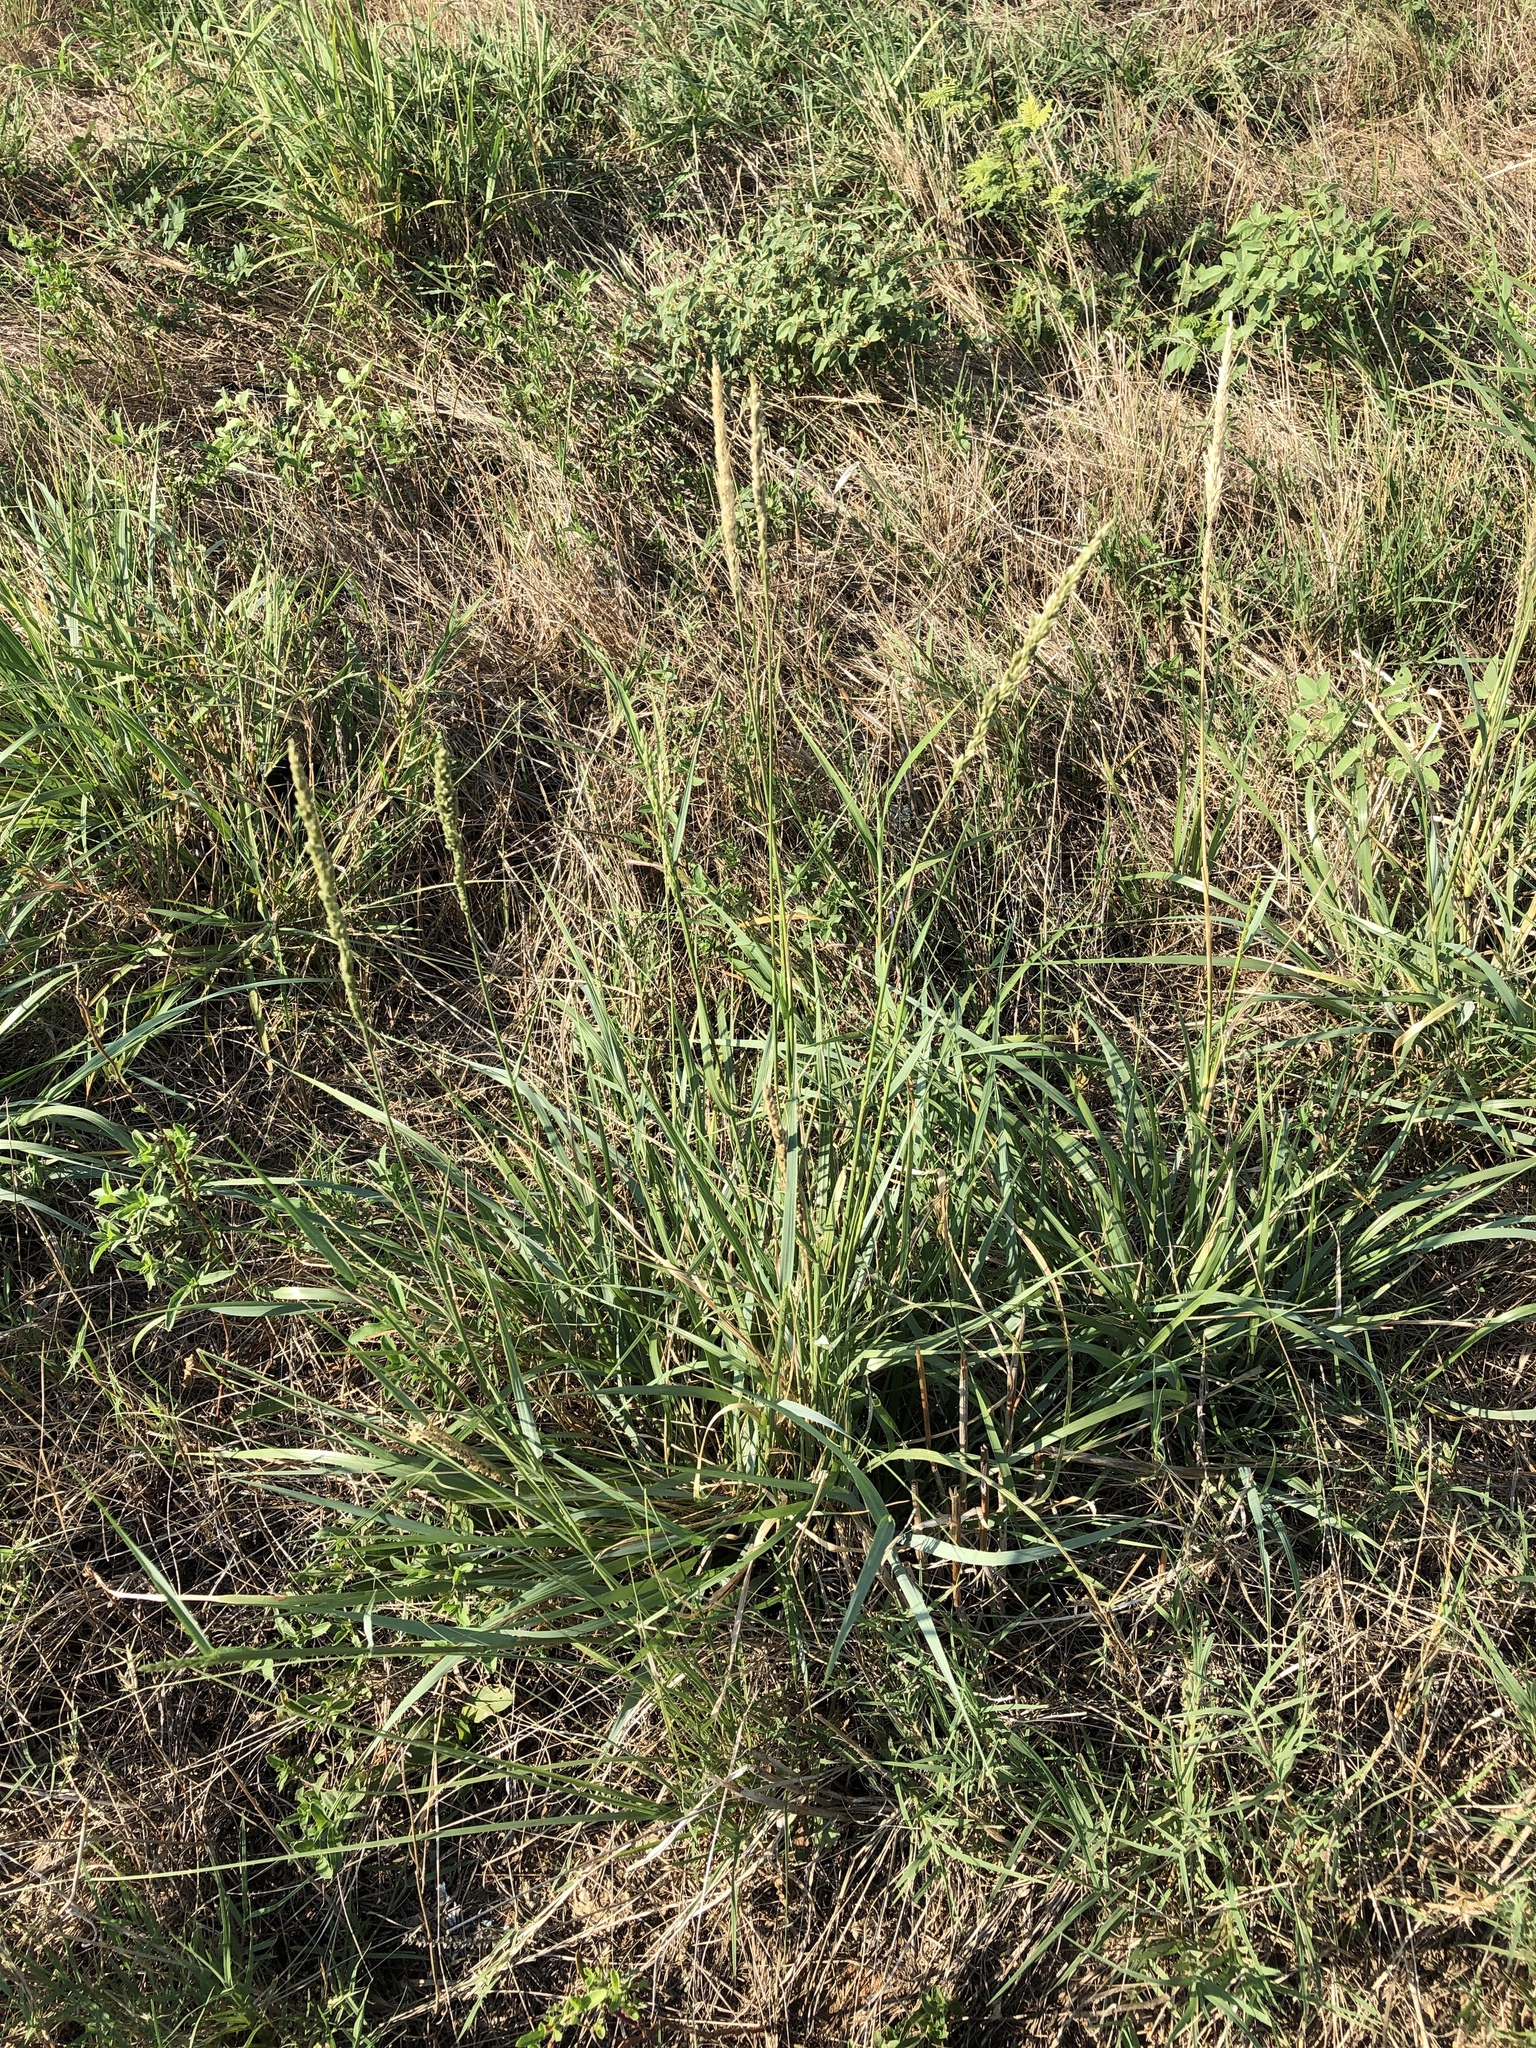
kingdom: Plantae
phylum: Tracheophyta
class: Liliopsida
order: Poales
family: Poaceae
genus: Tridens
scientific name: Tridens albescens
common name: White tridens
